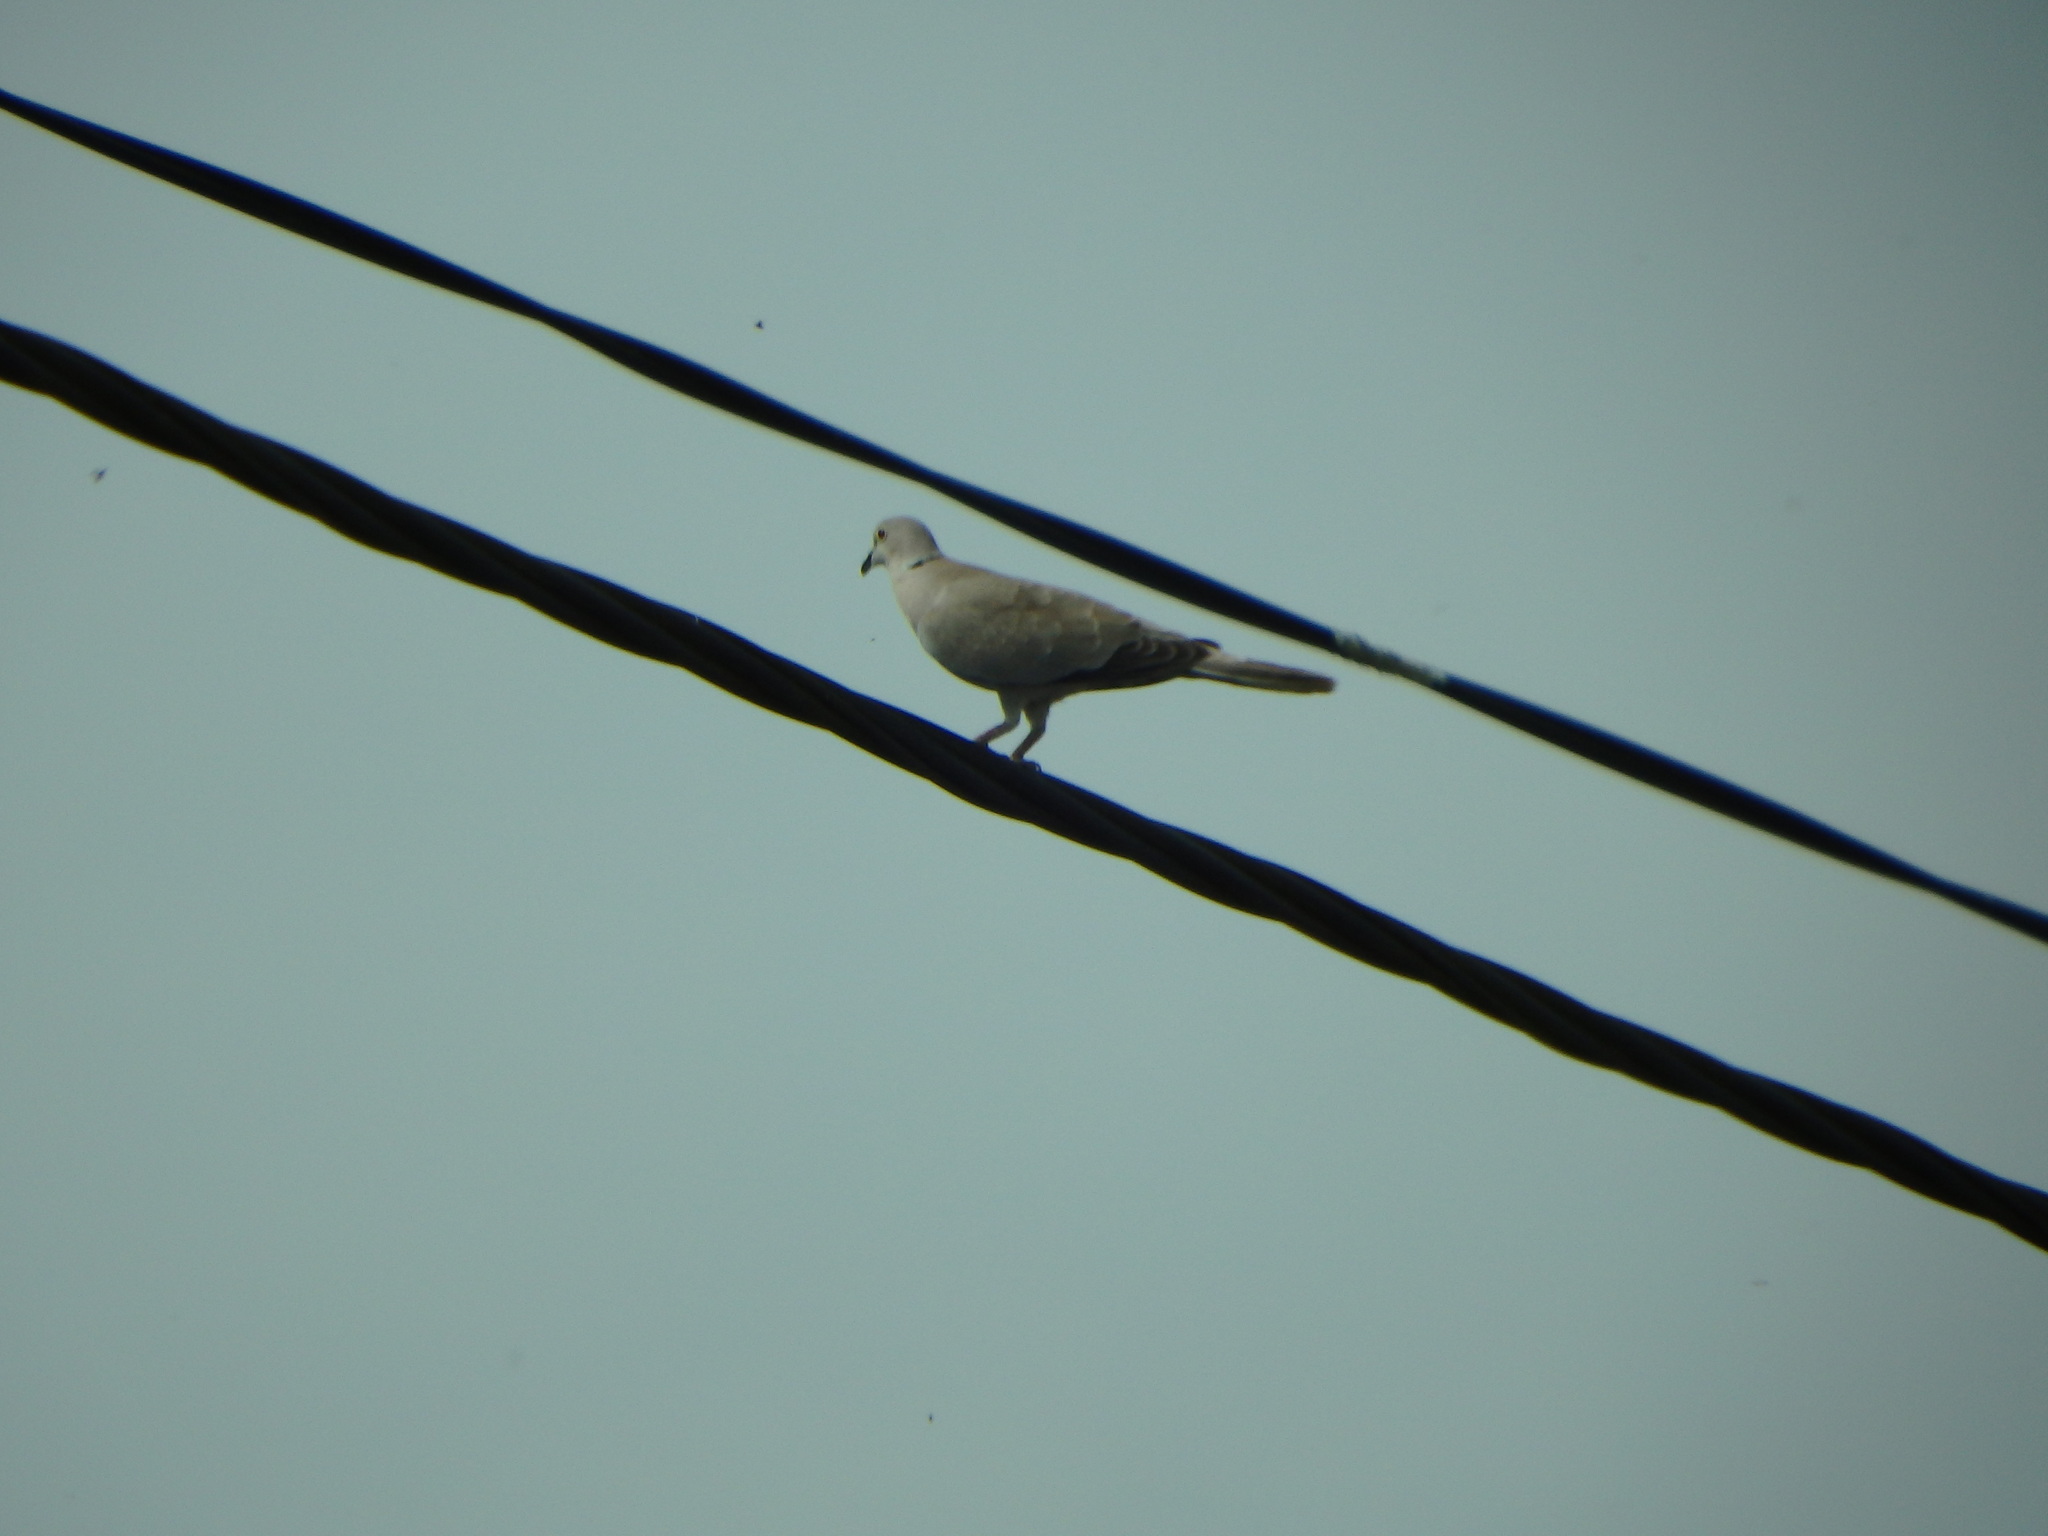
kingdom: Animalia
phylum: Chordata
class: Aves
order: Columbiformes
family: Columbidae
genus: Streptopelia
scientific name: Streptopelia decaocto
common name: Eurasian collared dove
